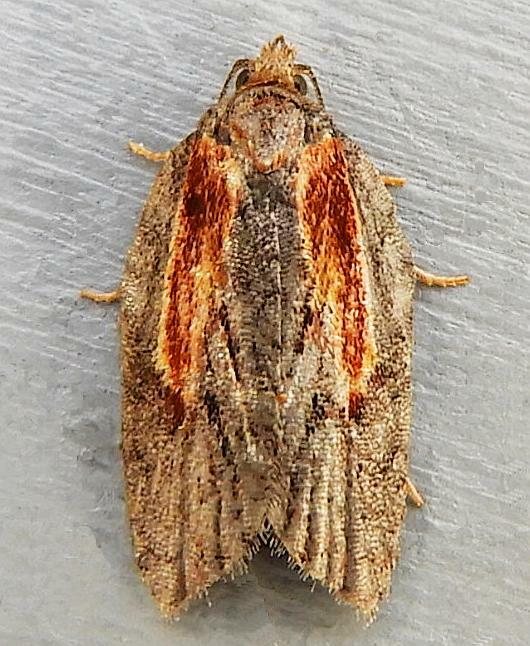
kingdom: Animalia
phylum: Arthropoda
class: Insecta
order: Lepidoptera
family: Tortricidae
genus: Acleris
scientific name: Acleris youngana
